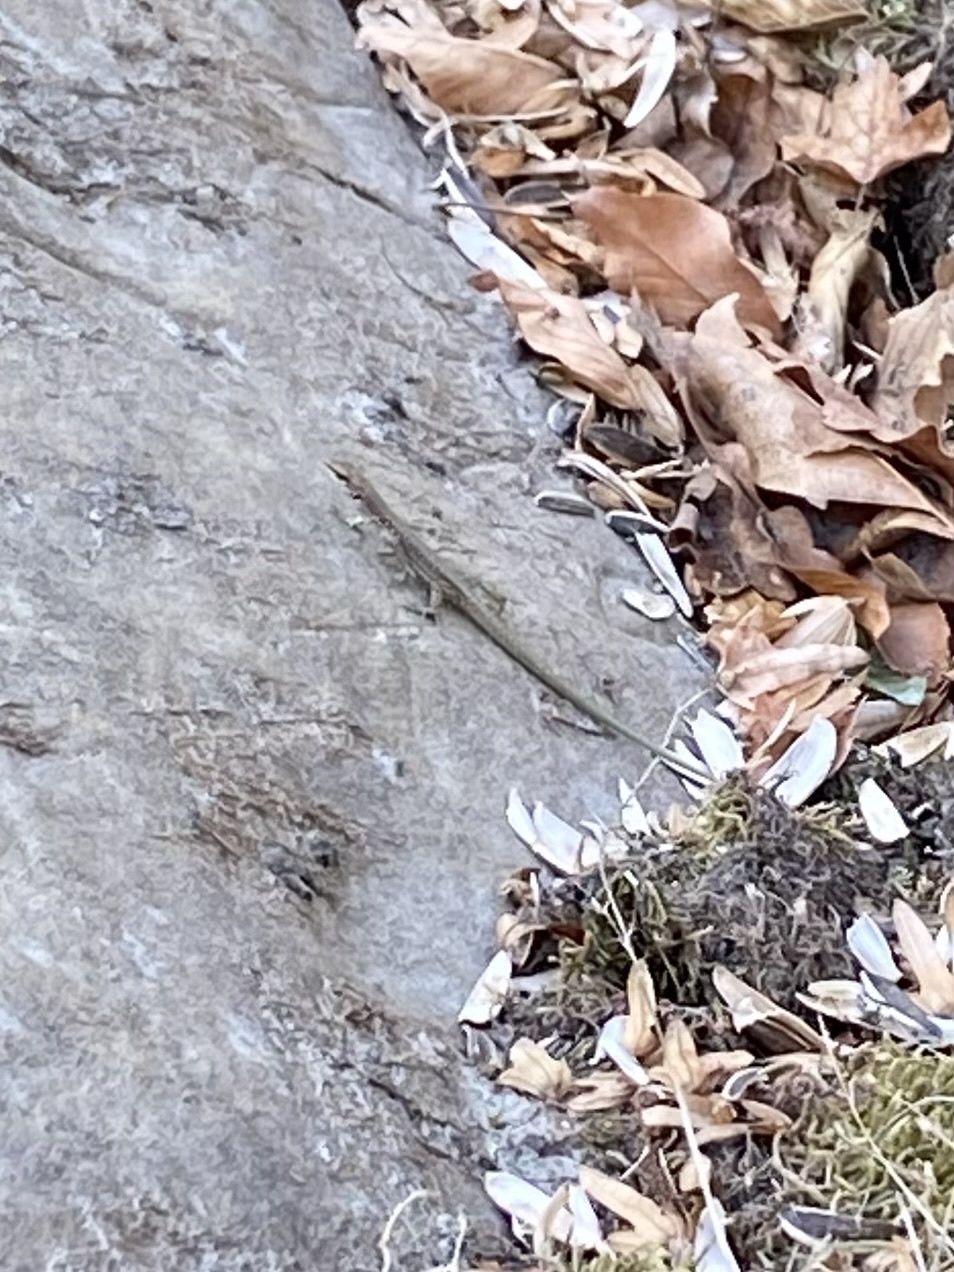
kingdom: Animalia
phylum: Chordata
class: Squamata
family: Lacertidae
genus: Darevskia
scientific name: Darevskia brauneri
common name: Brauner's rock lizard
